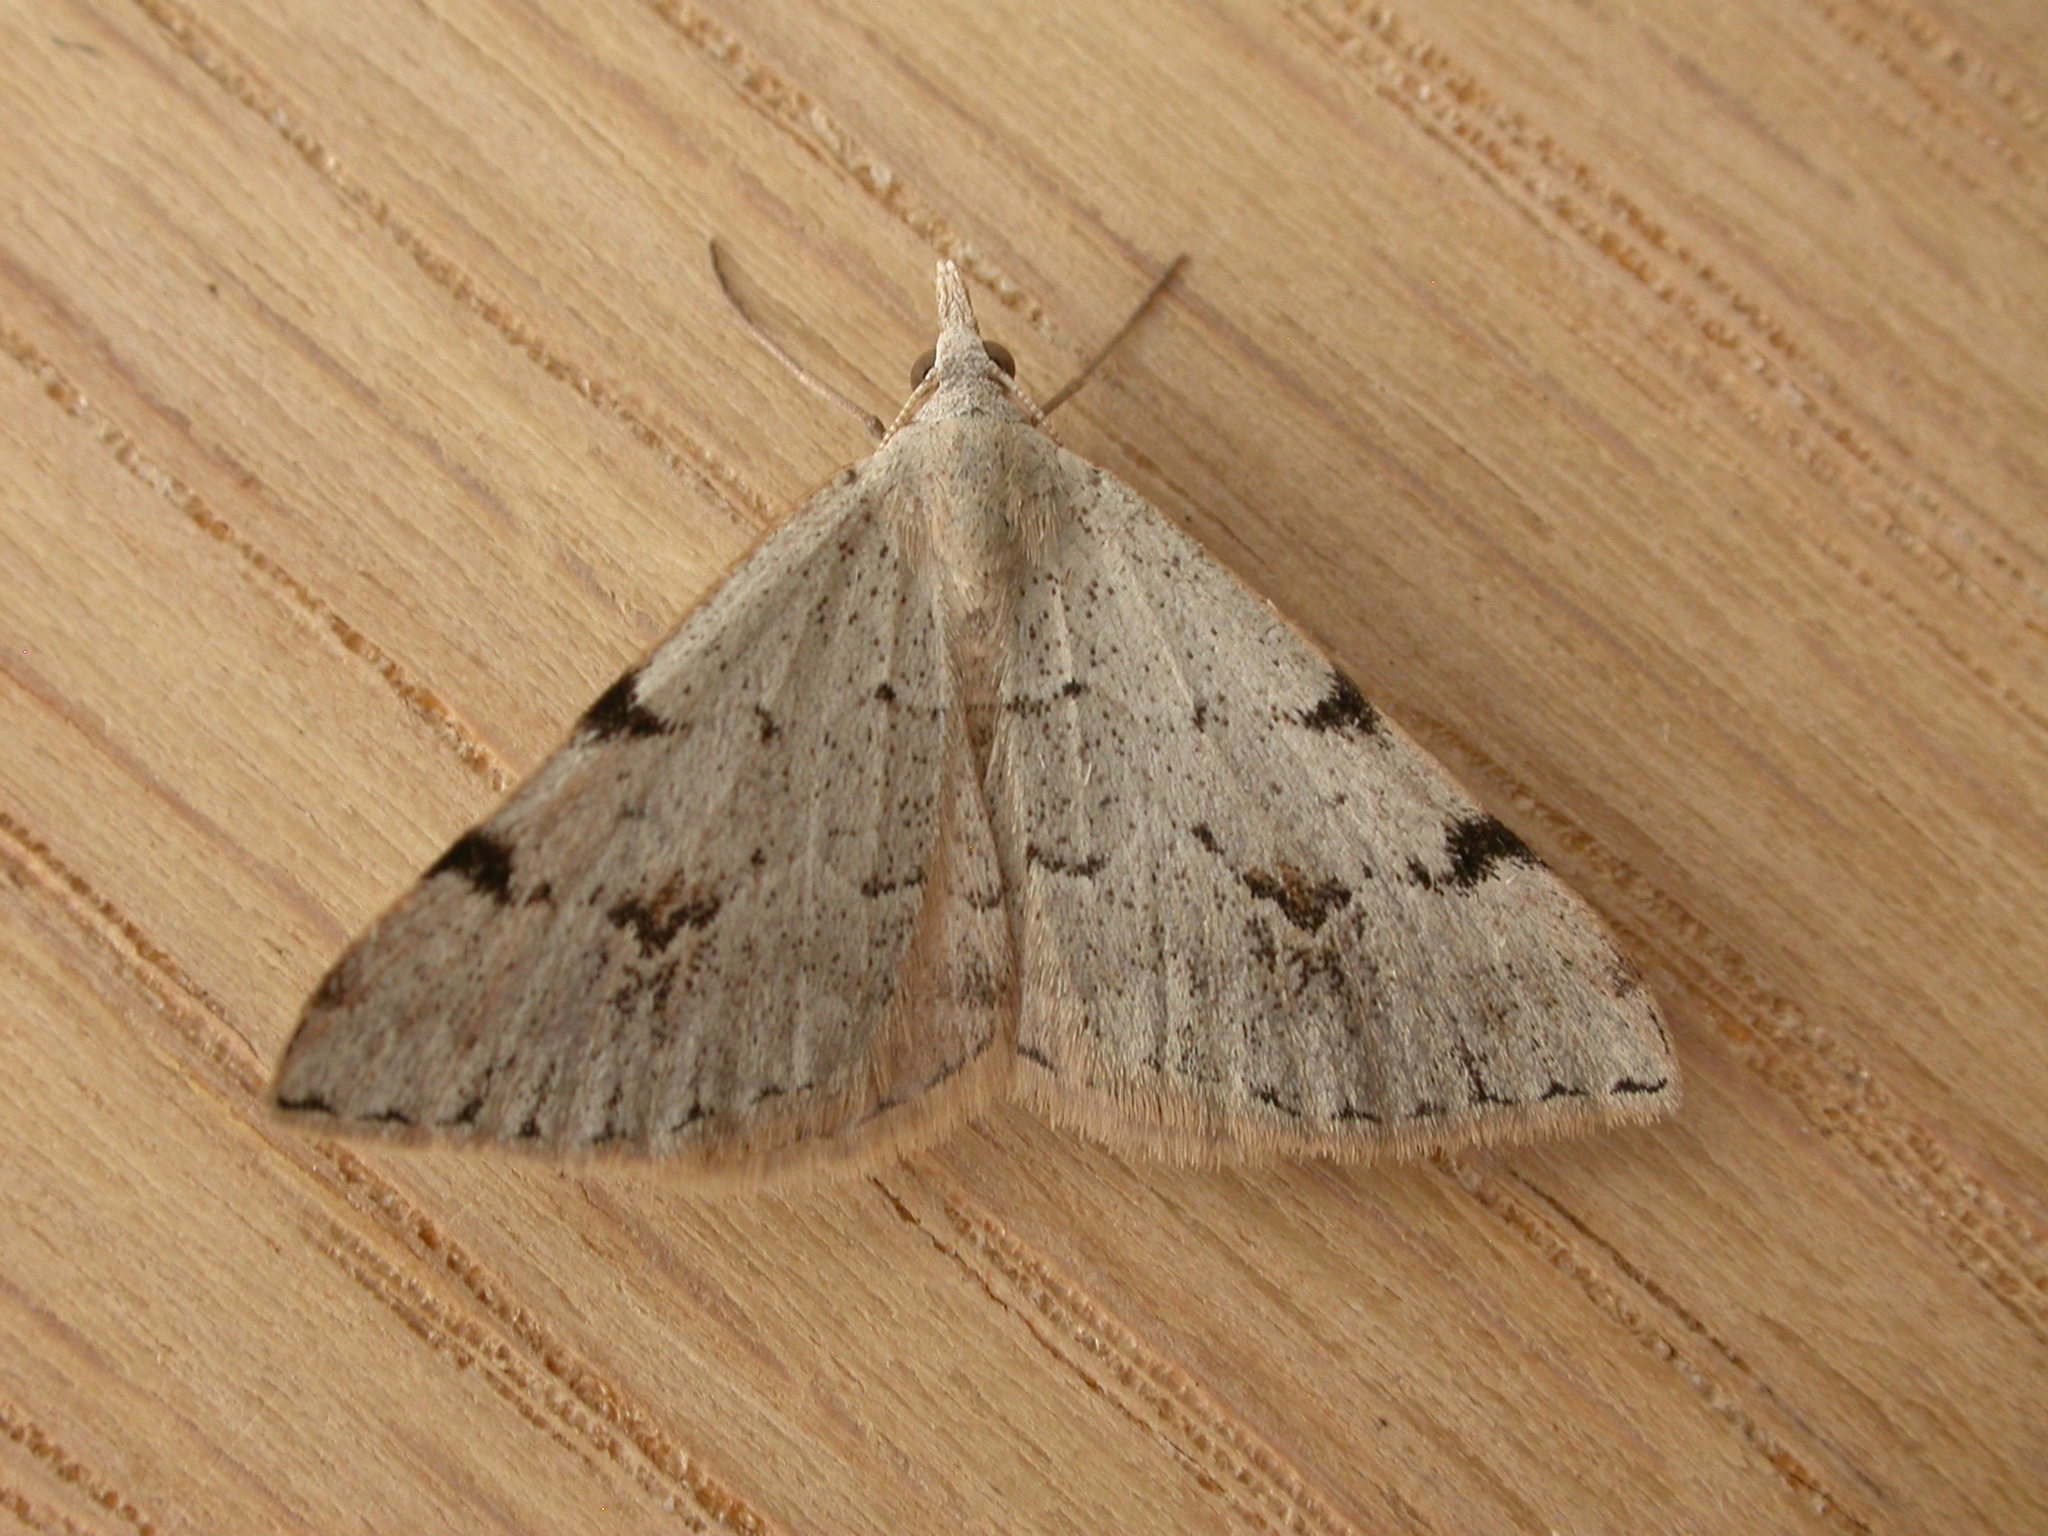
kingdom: Animalia
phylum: Arthropoda
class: Insecta
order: Lepidoptera
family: Geometridae
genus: Dichromodes
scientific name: Dichromodes estigmaria
